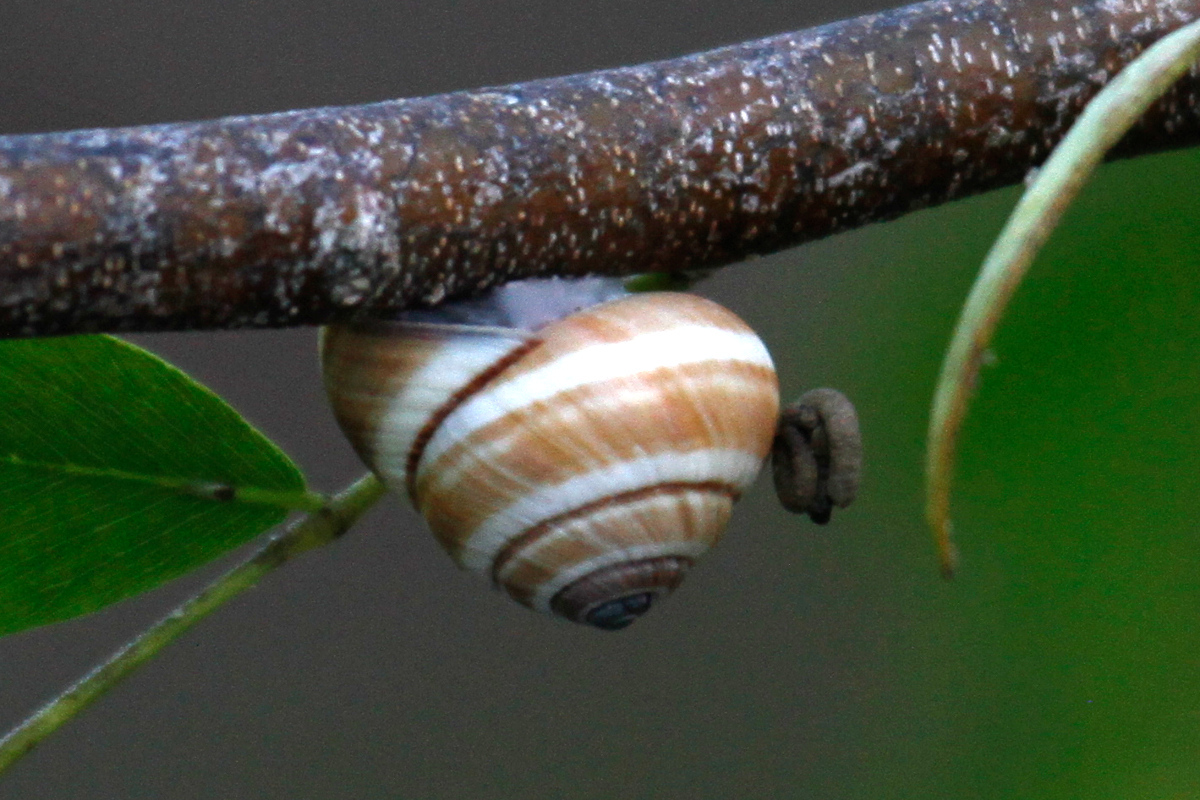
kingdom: Animalia
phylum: Mollusca
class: Gastropoda
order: Stylommatophora
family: Cepolidae
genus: Hemitrochus
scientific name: Hemitrochus varians
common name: Caribbean land snail
